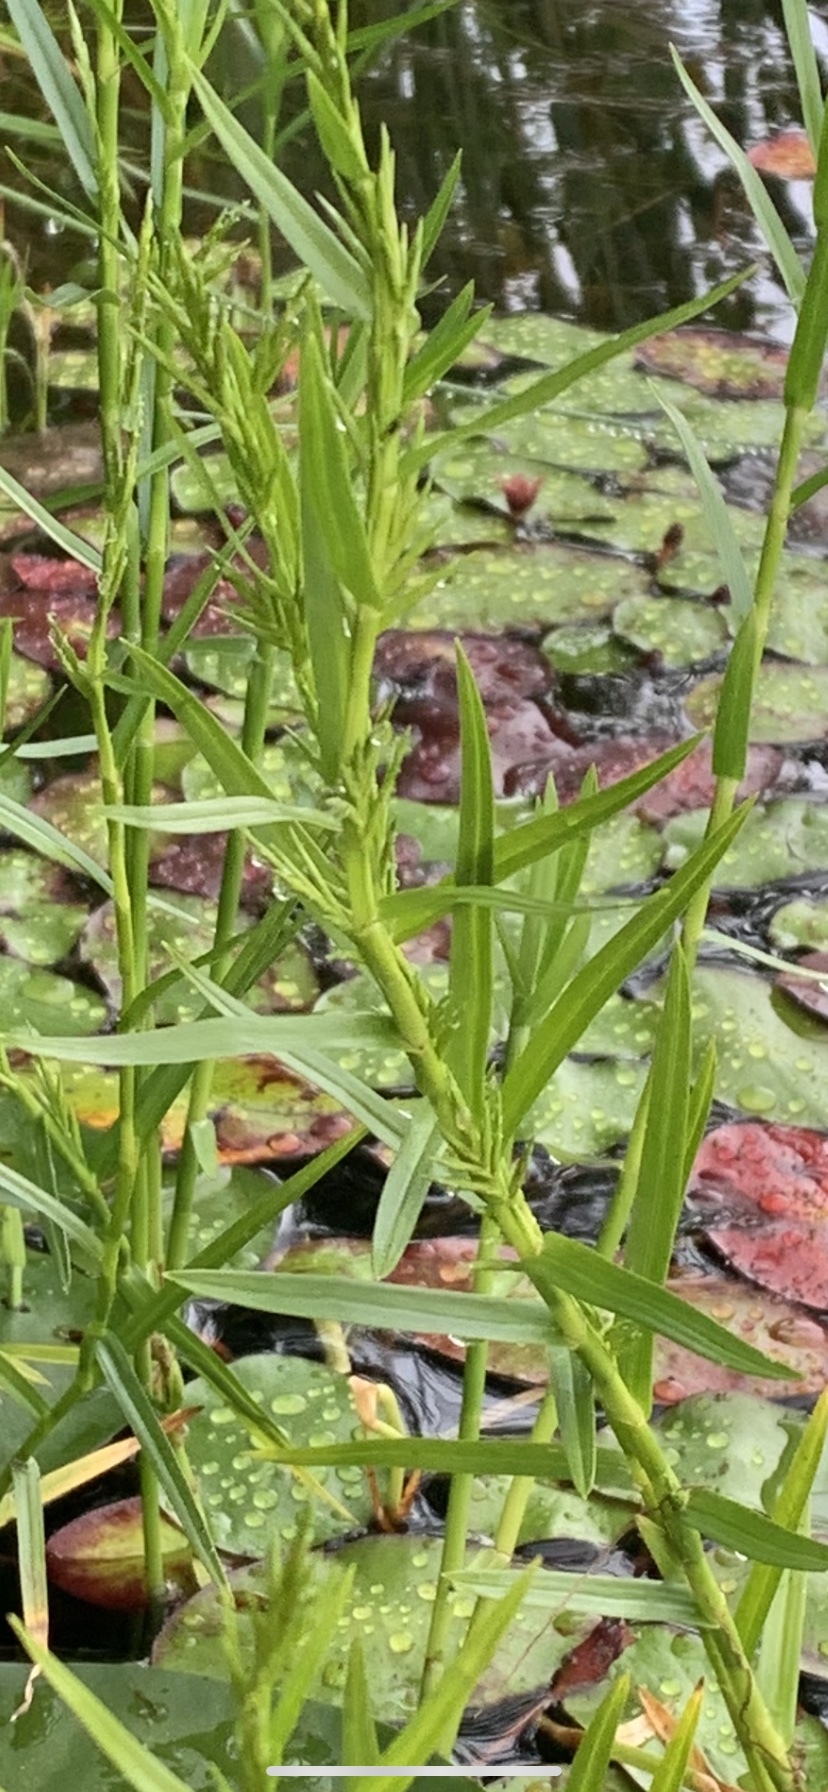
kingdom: Plantae
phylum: Tracheophyta
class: Liliopsida
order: Poales
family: Cyperaceae
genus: Dulichium
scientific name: Dulichium arundinaceum
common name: Three-way sedge
